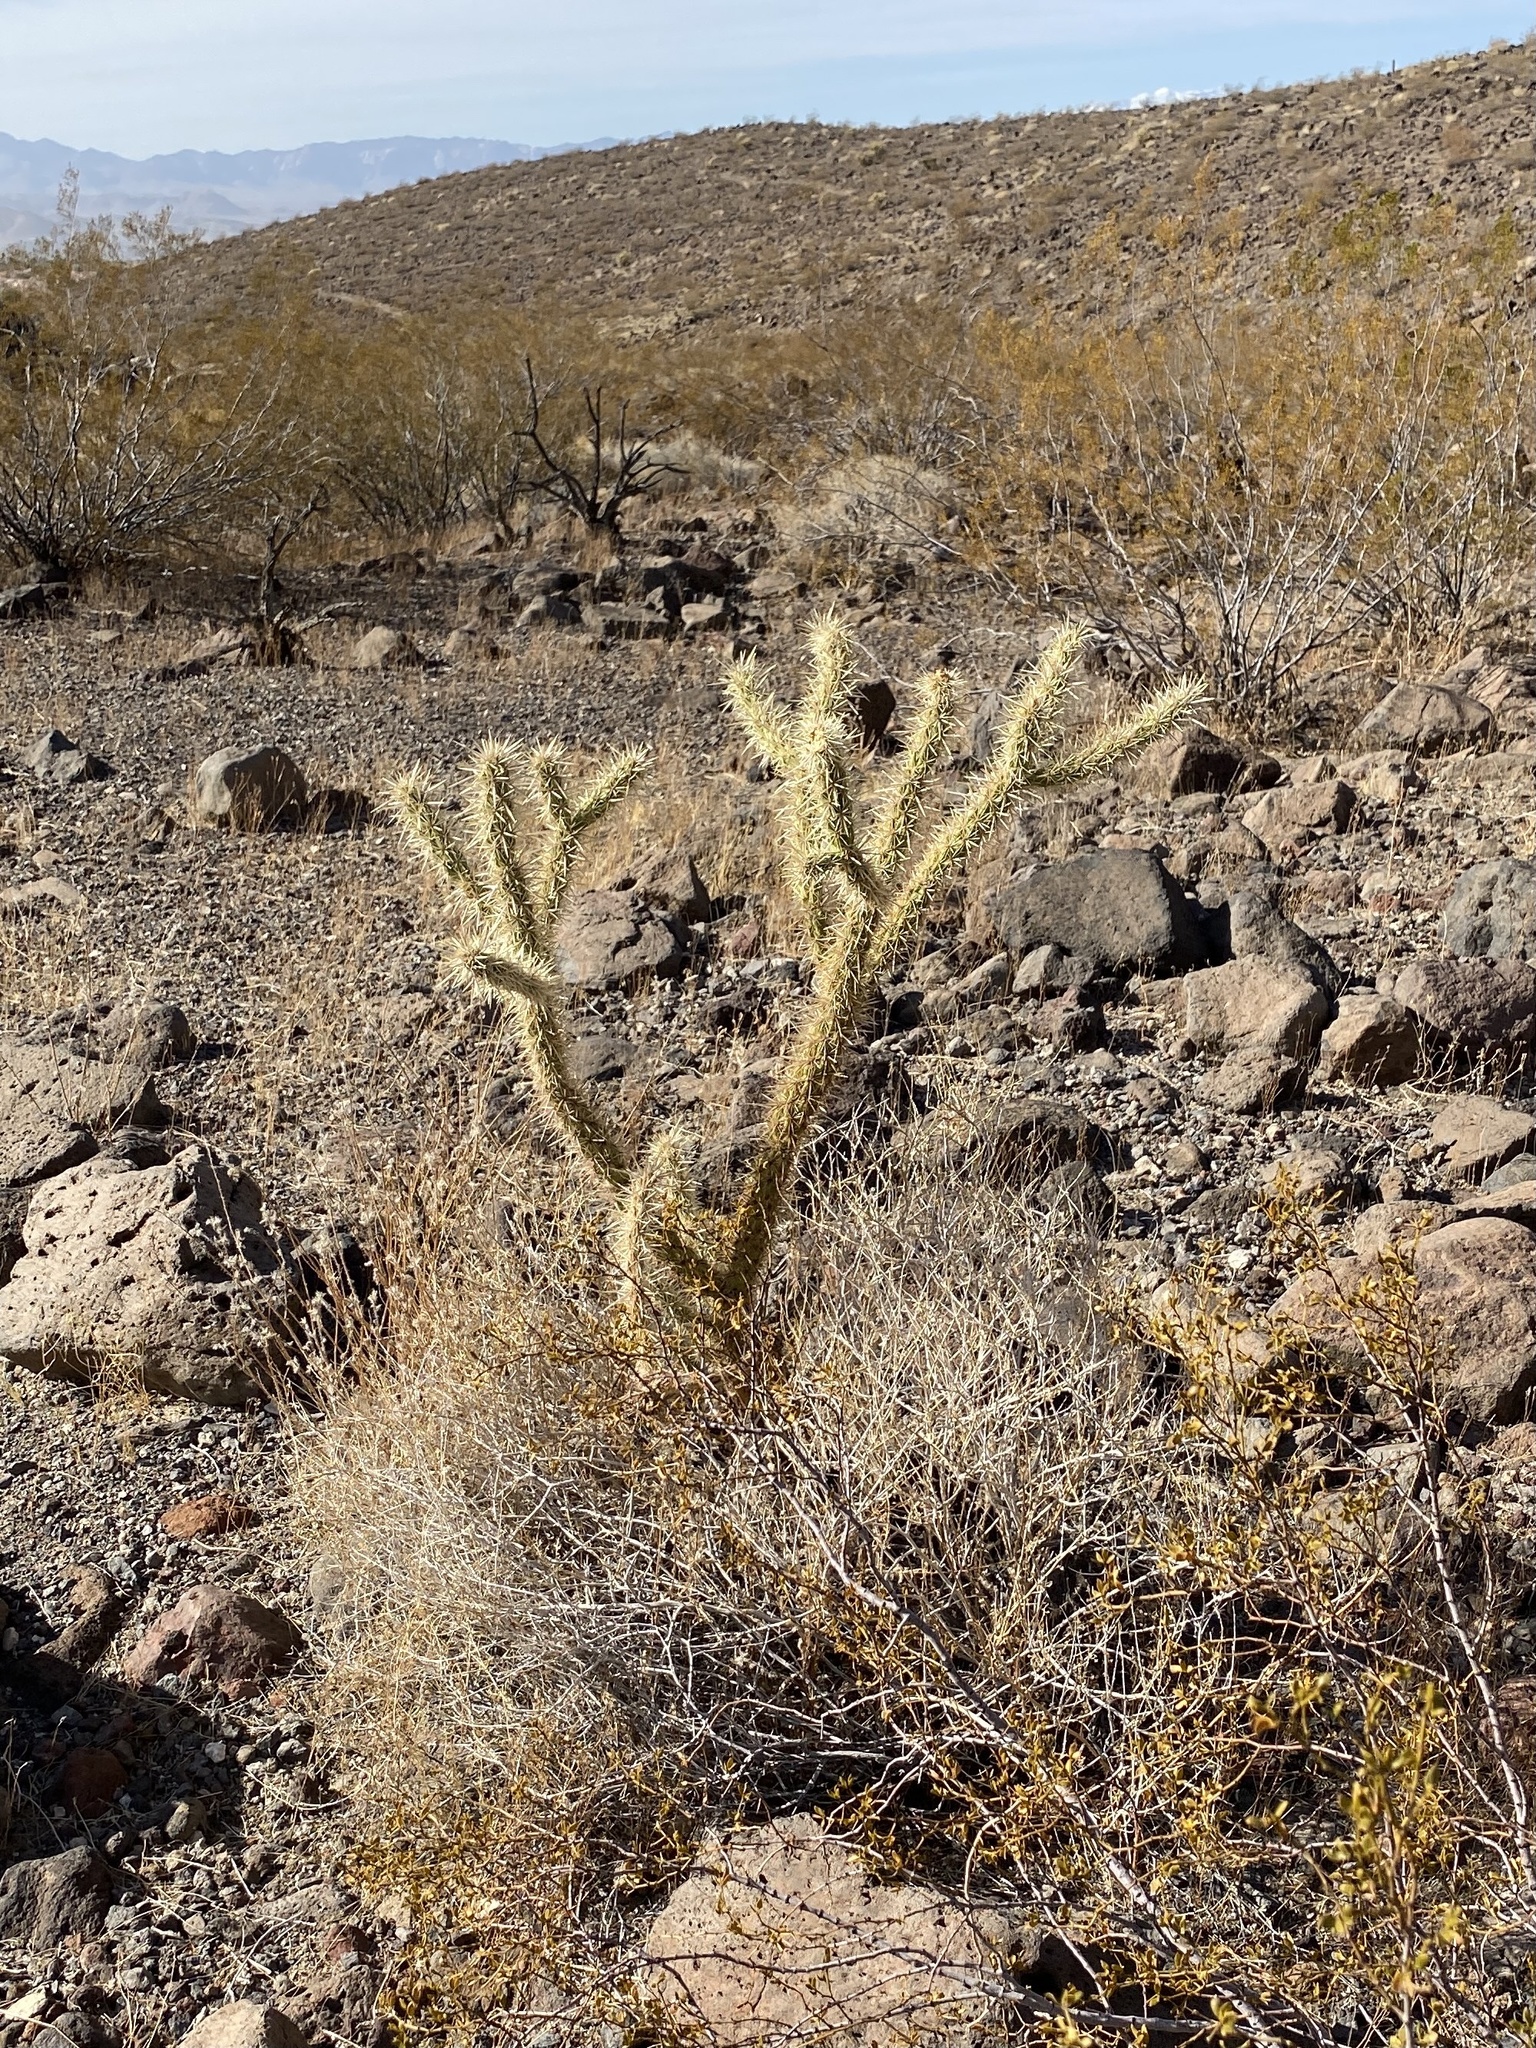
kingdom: Plantae
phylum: Tracheophyta
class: Magnoliopsida
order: Caryophyllales
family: Cactaceae
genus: Cylindropuntia
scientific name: Cylindropuntia acanthocarpa
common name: Buckhorn cholla
